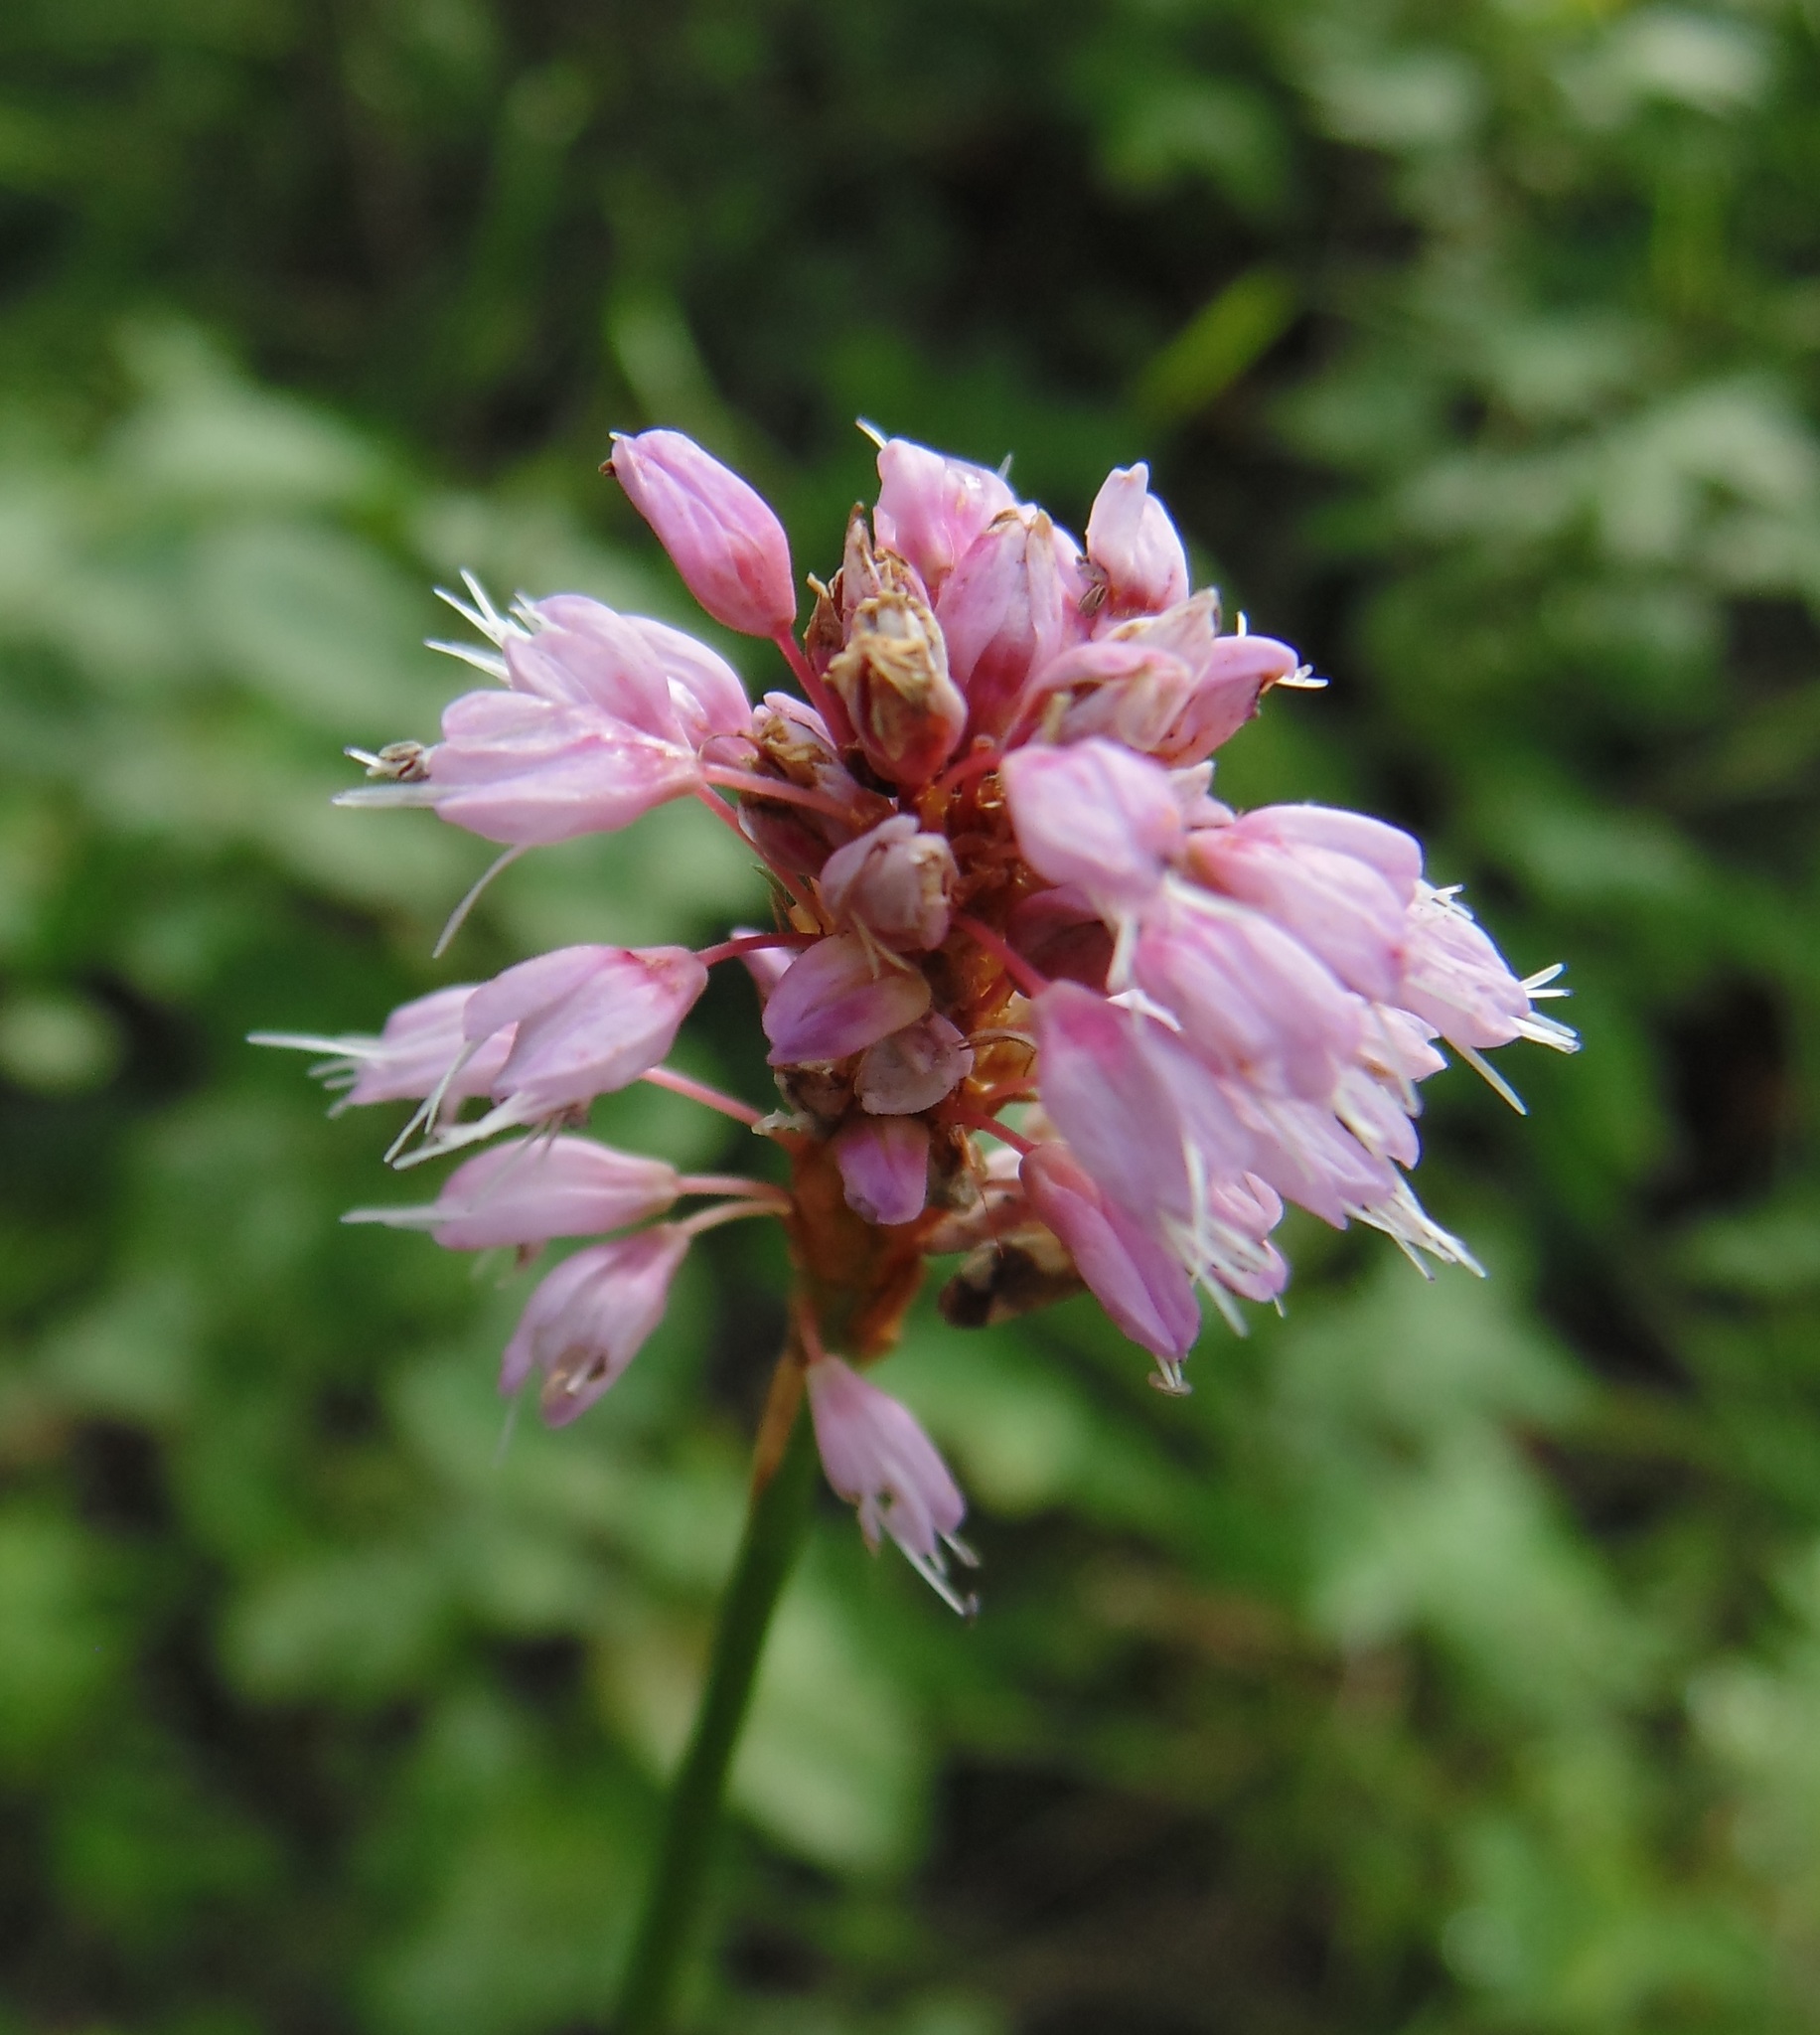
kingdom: Plantae
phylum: Tracheophyta
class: Magnoliopsida
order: Caryophyllales
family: Polygonaceae
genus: Bistorta
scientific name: Bistorta officinalis
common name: Common bistort
